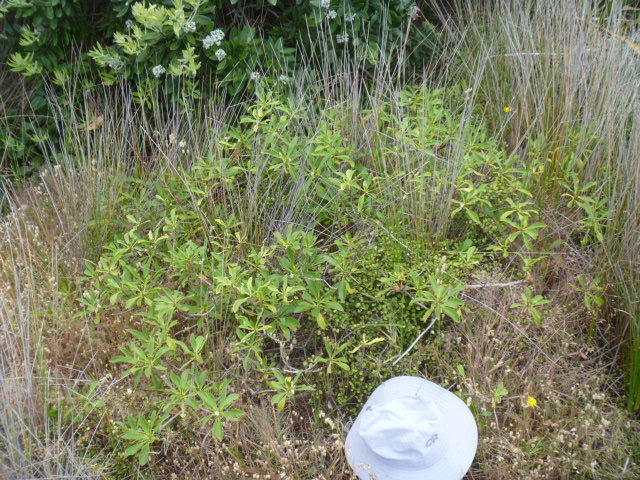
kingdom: Plantae
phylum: Tracheophyta
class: Magnoliopsida
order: Lamiales
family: Scrophulariaceae
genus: Myoporum
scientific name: Myoporum
